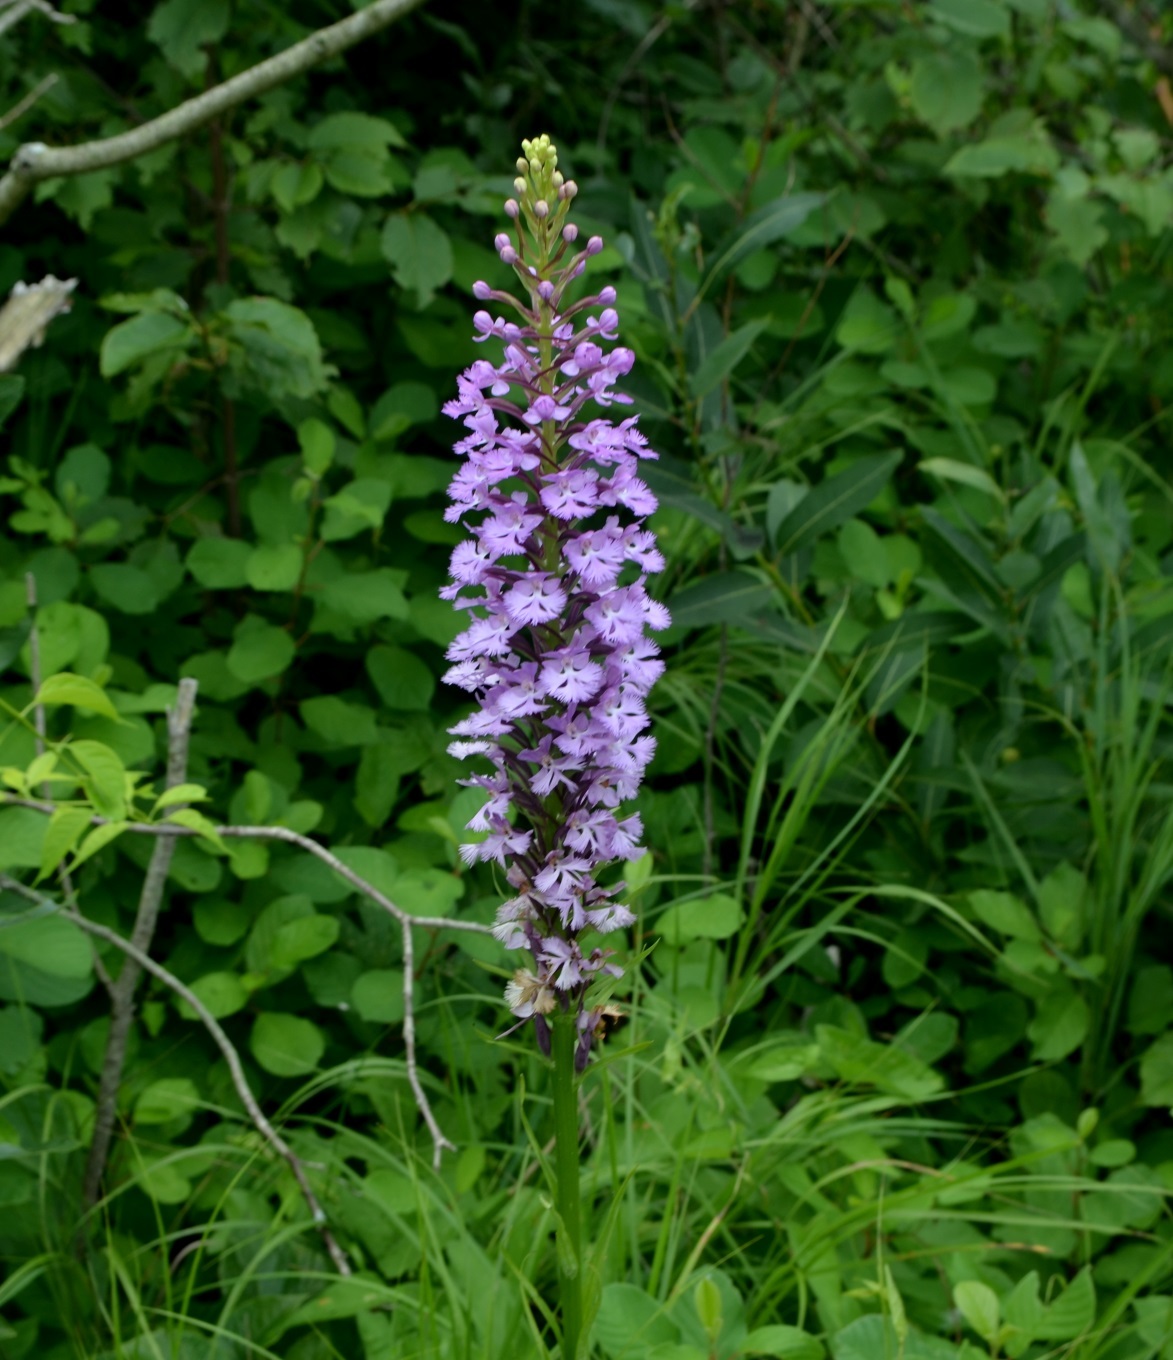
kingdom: Plantae
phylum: Tracheophyta
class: Liliopsida
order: Asparagales
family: Orchidaceae
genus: Platanthera
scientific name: Platanthera psycodes
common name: Lesser purple fringed orchid
